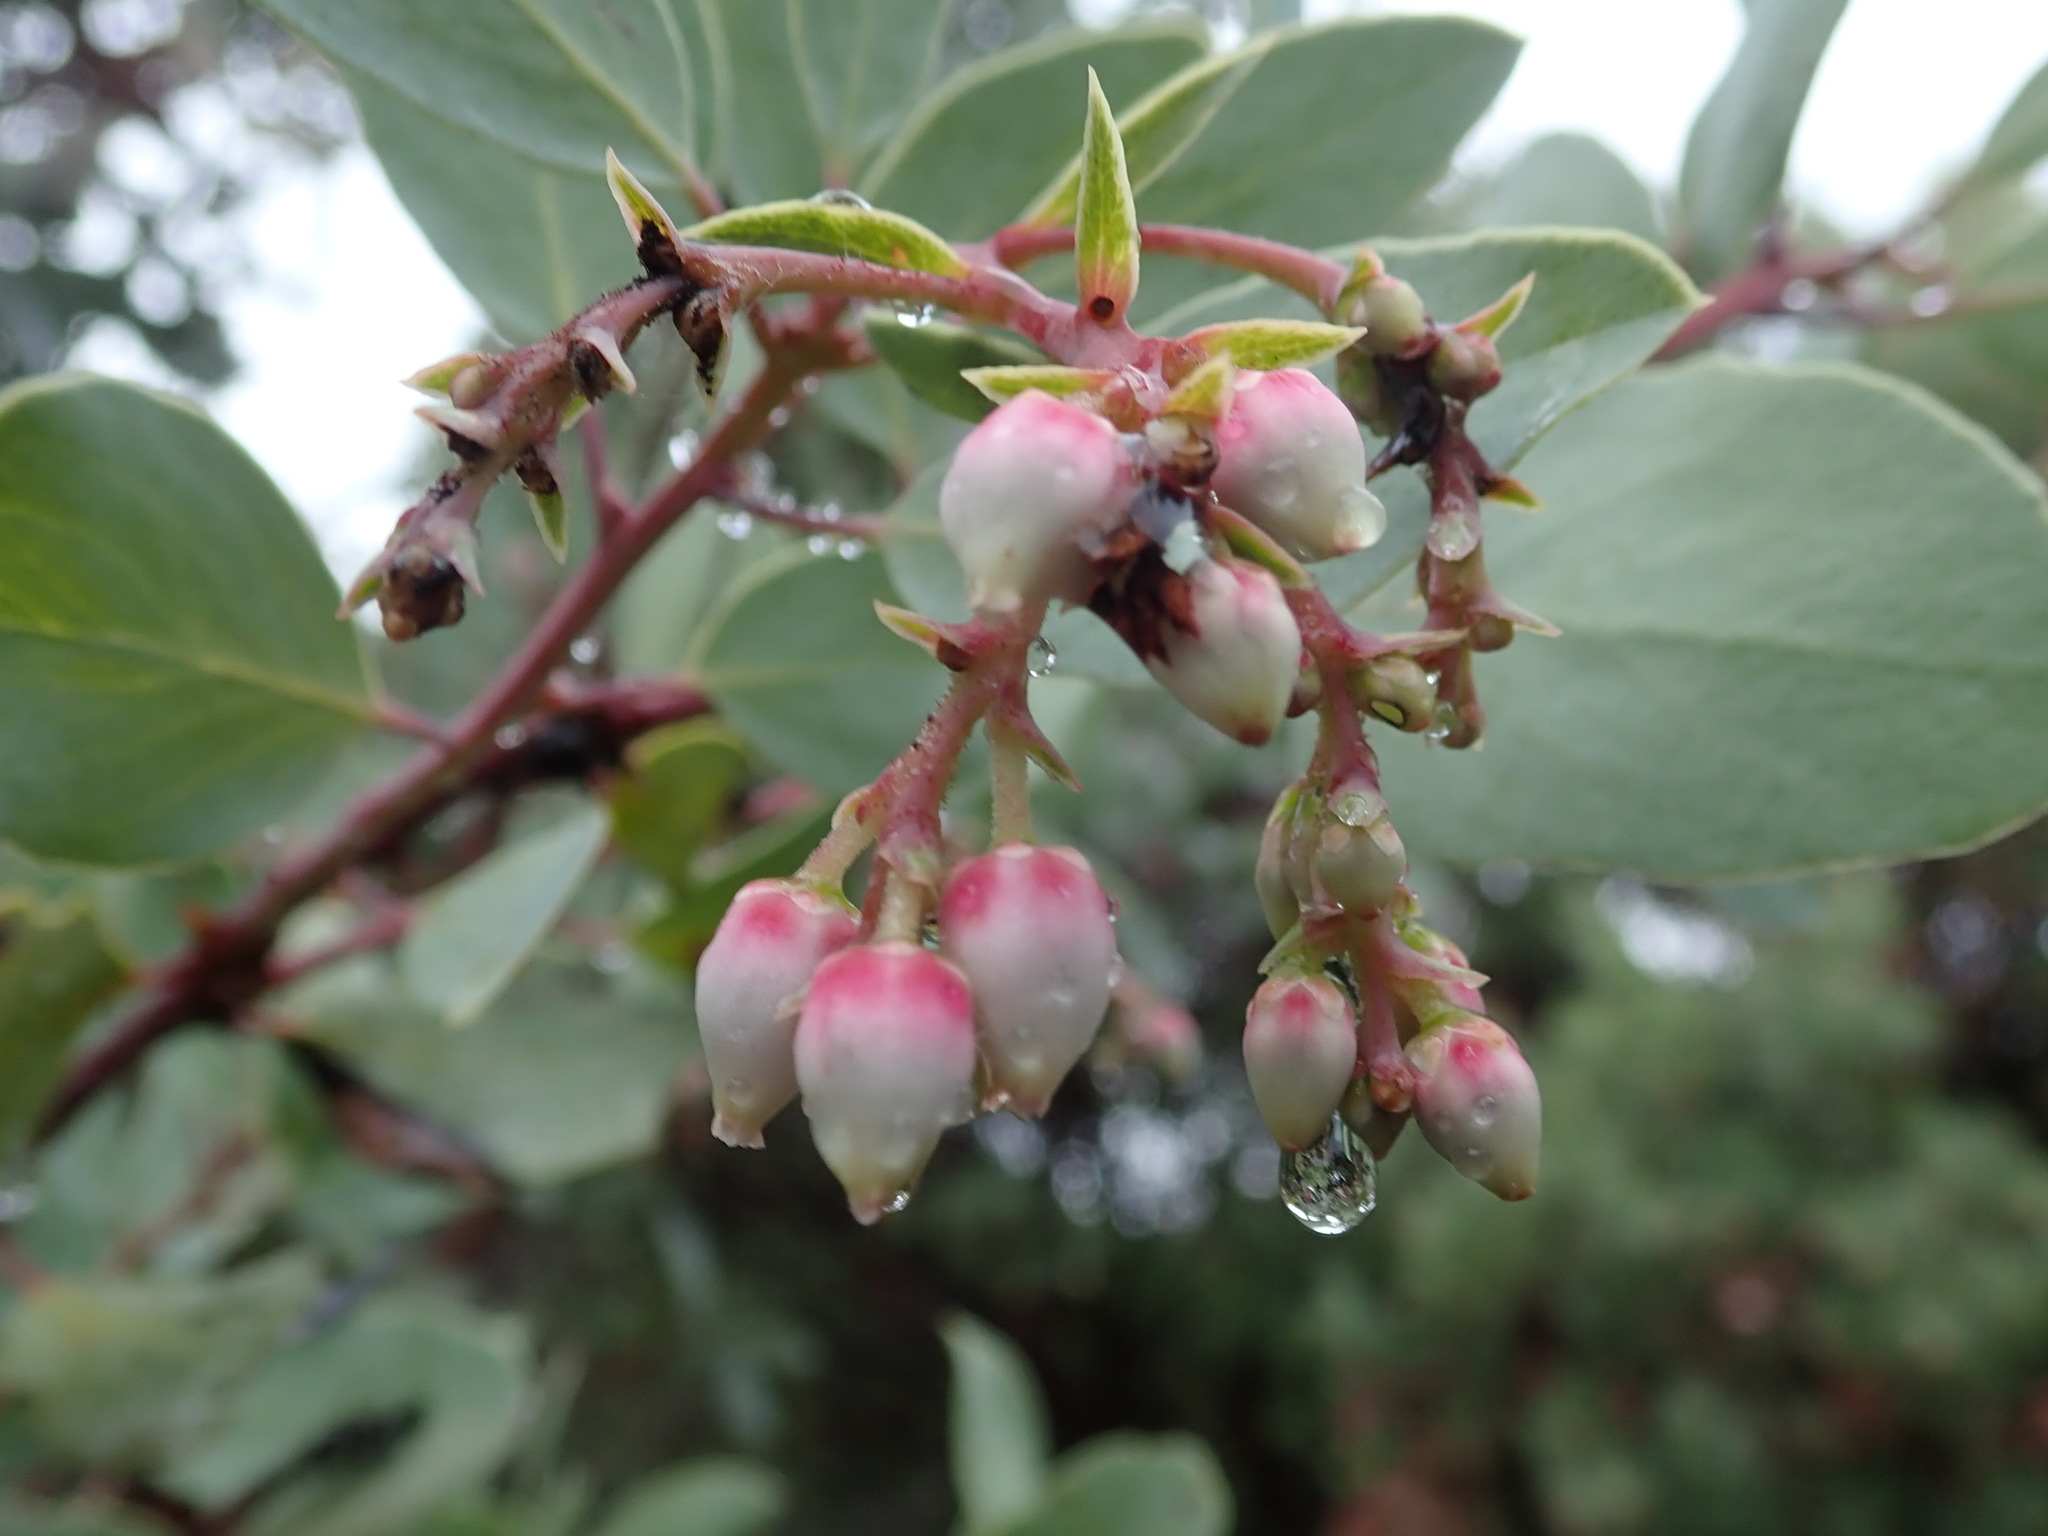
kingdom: Plantae
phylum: Tracheophyta
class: Magnoliopsida
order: Ericales
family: Ericaceae
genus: Arctostaphylos
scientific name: Arctostaphylos glauca
